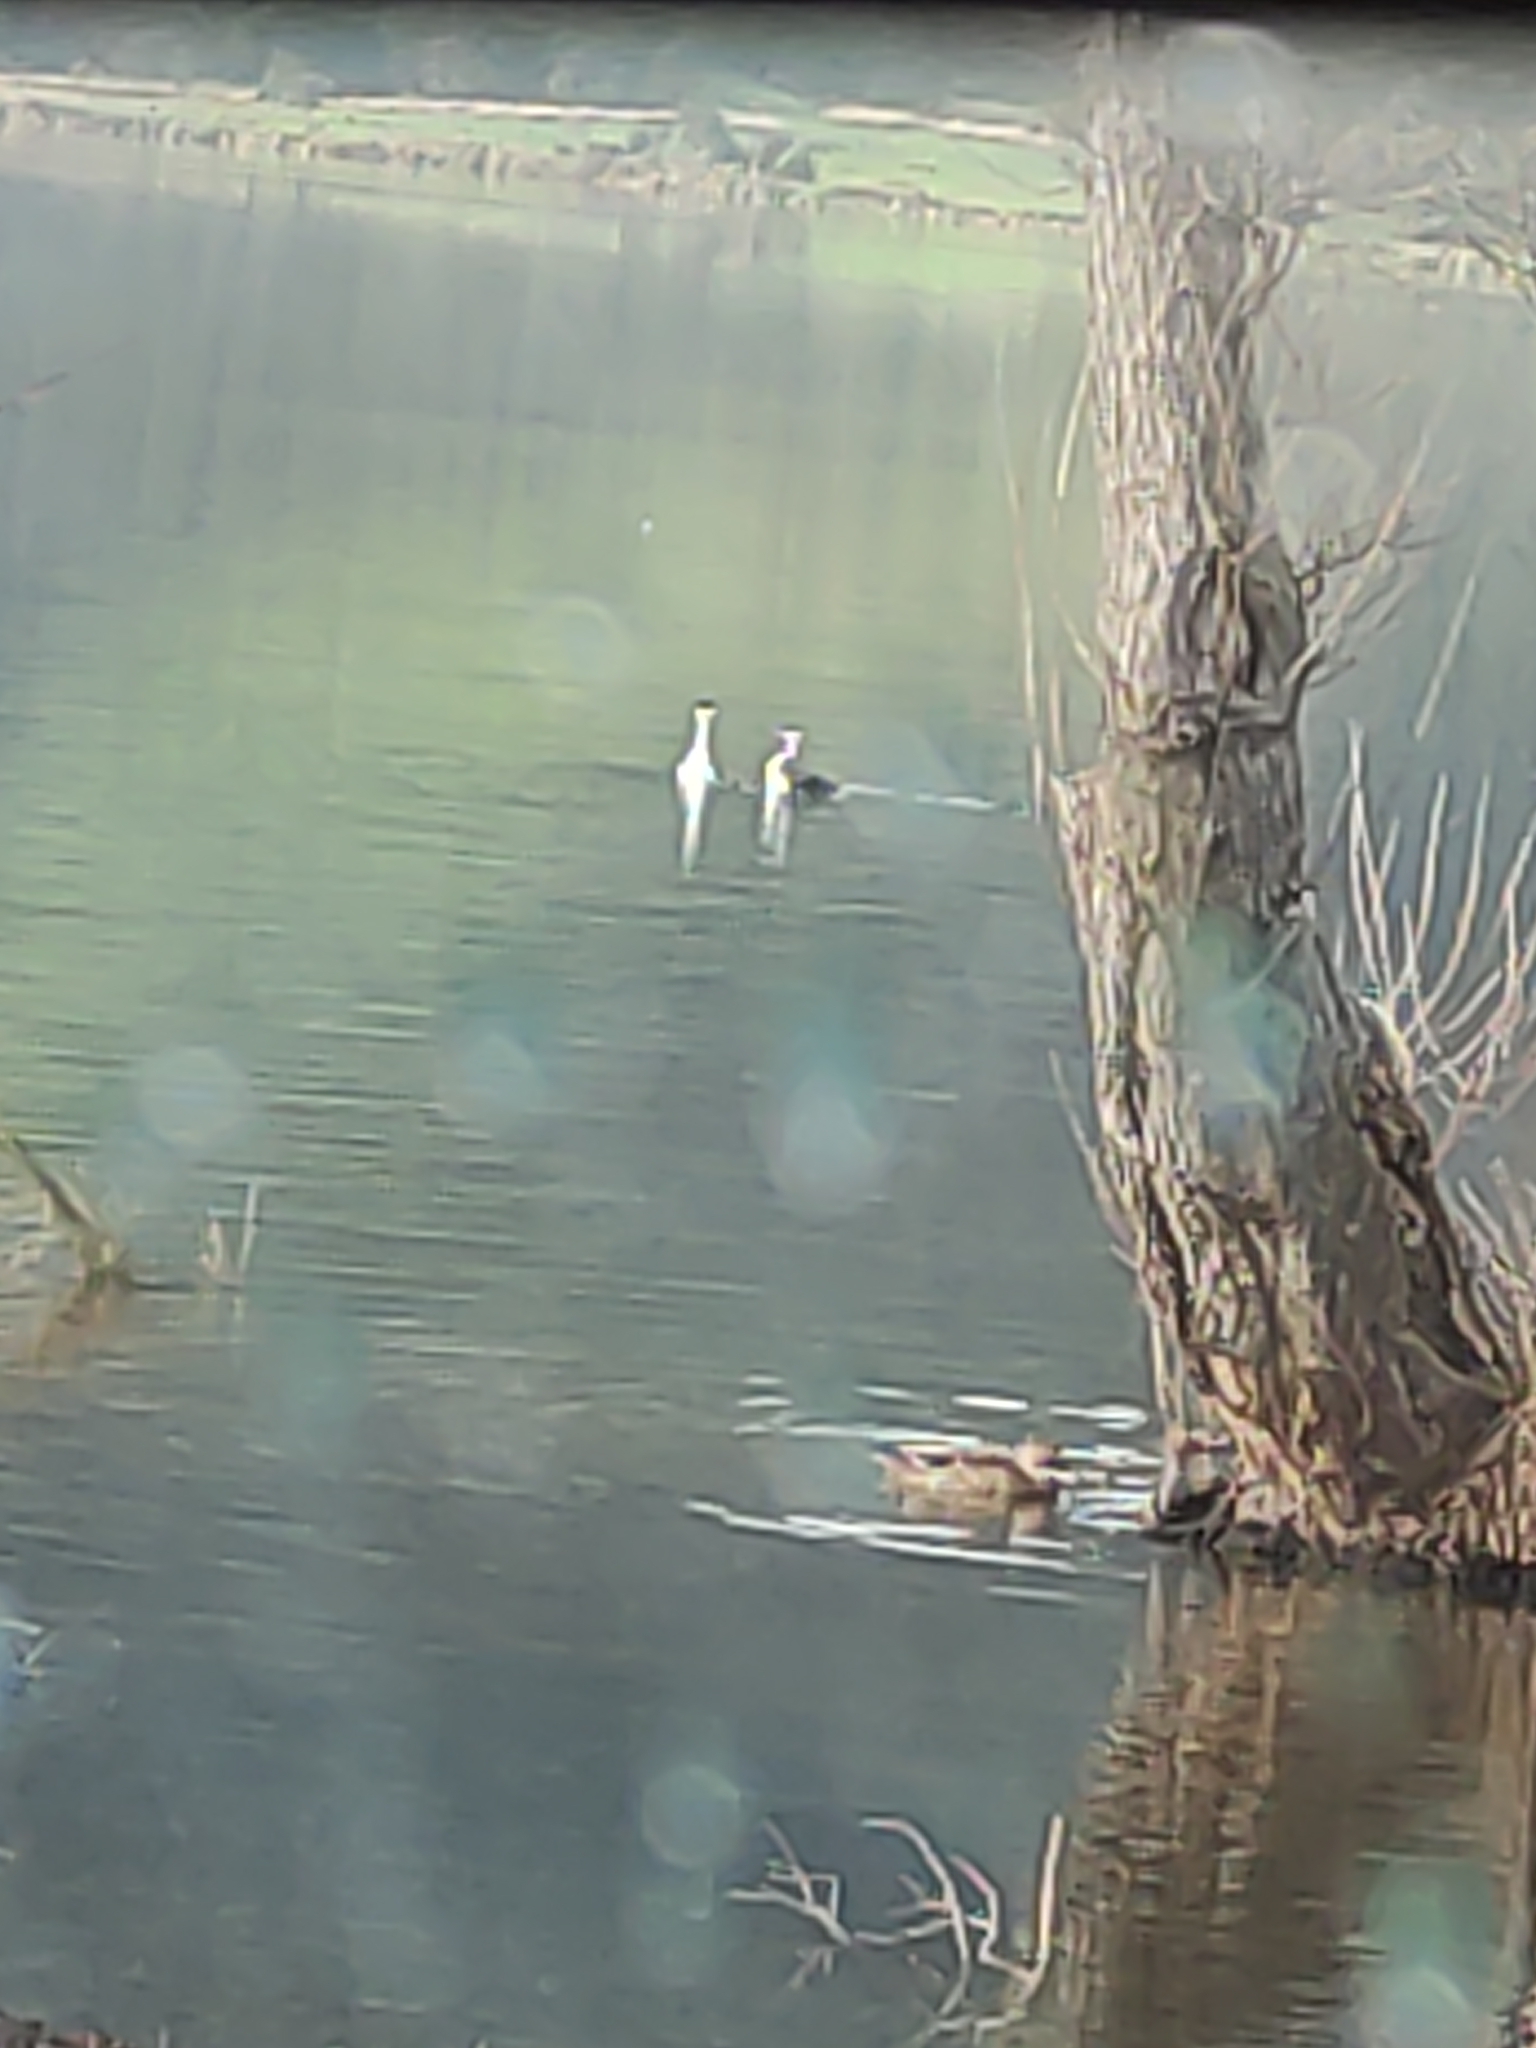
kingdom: Animalia
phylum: Chordata
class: Aves
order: Podicipediformes
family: Podicipedidae
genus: Podiceps
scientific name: Podiceps cristatus
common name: Great crested grebe
